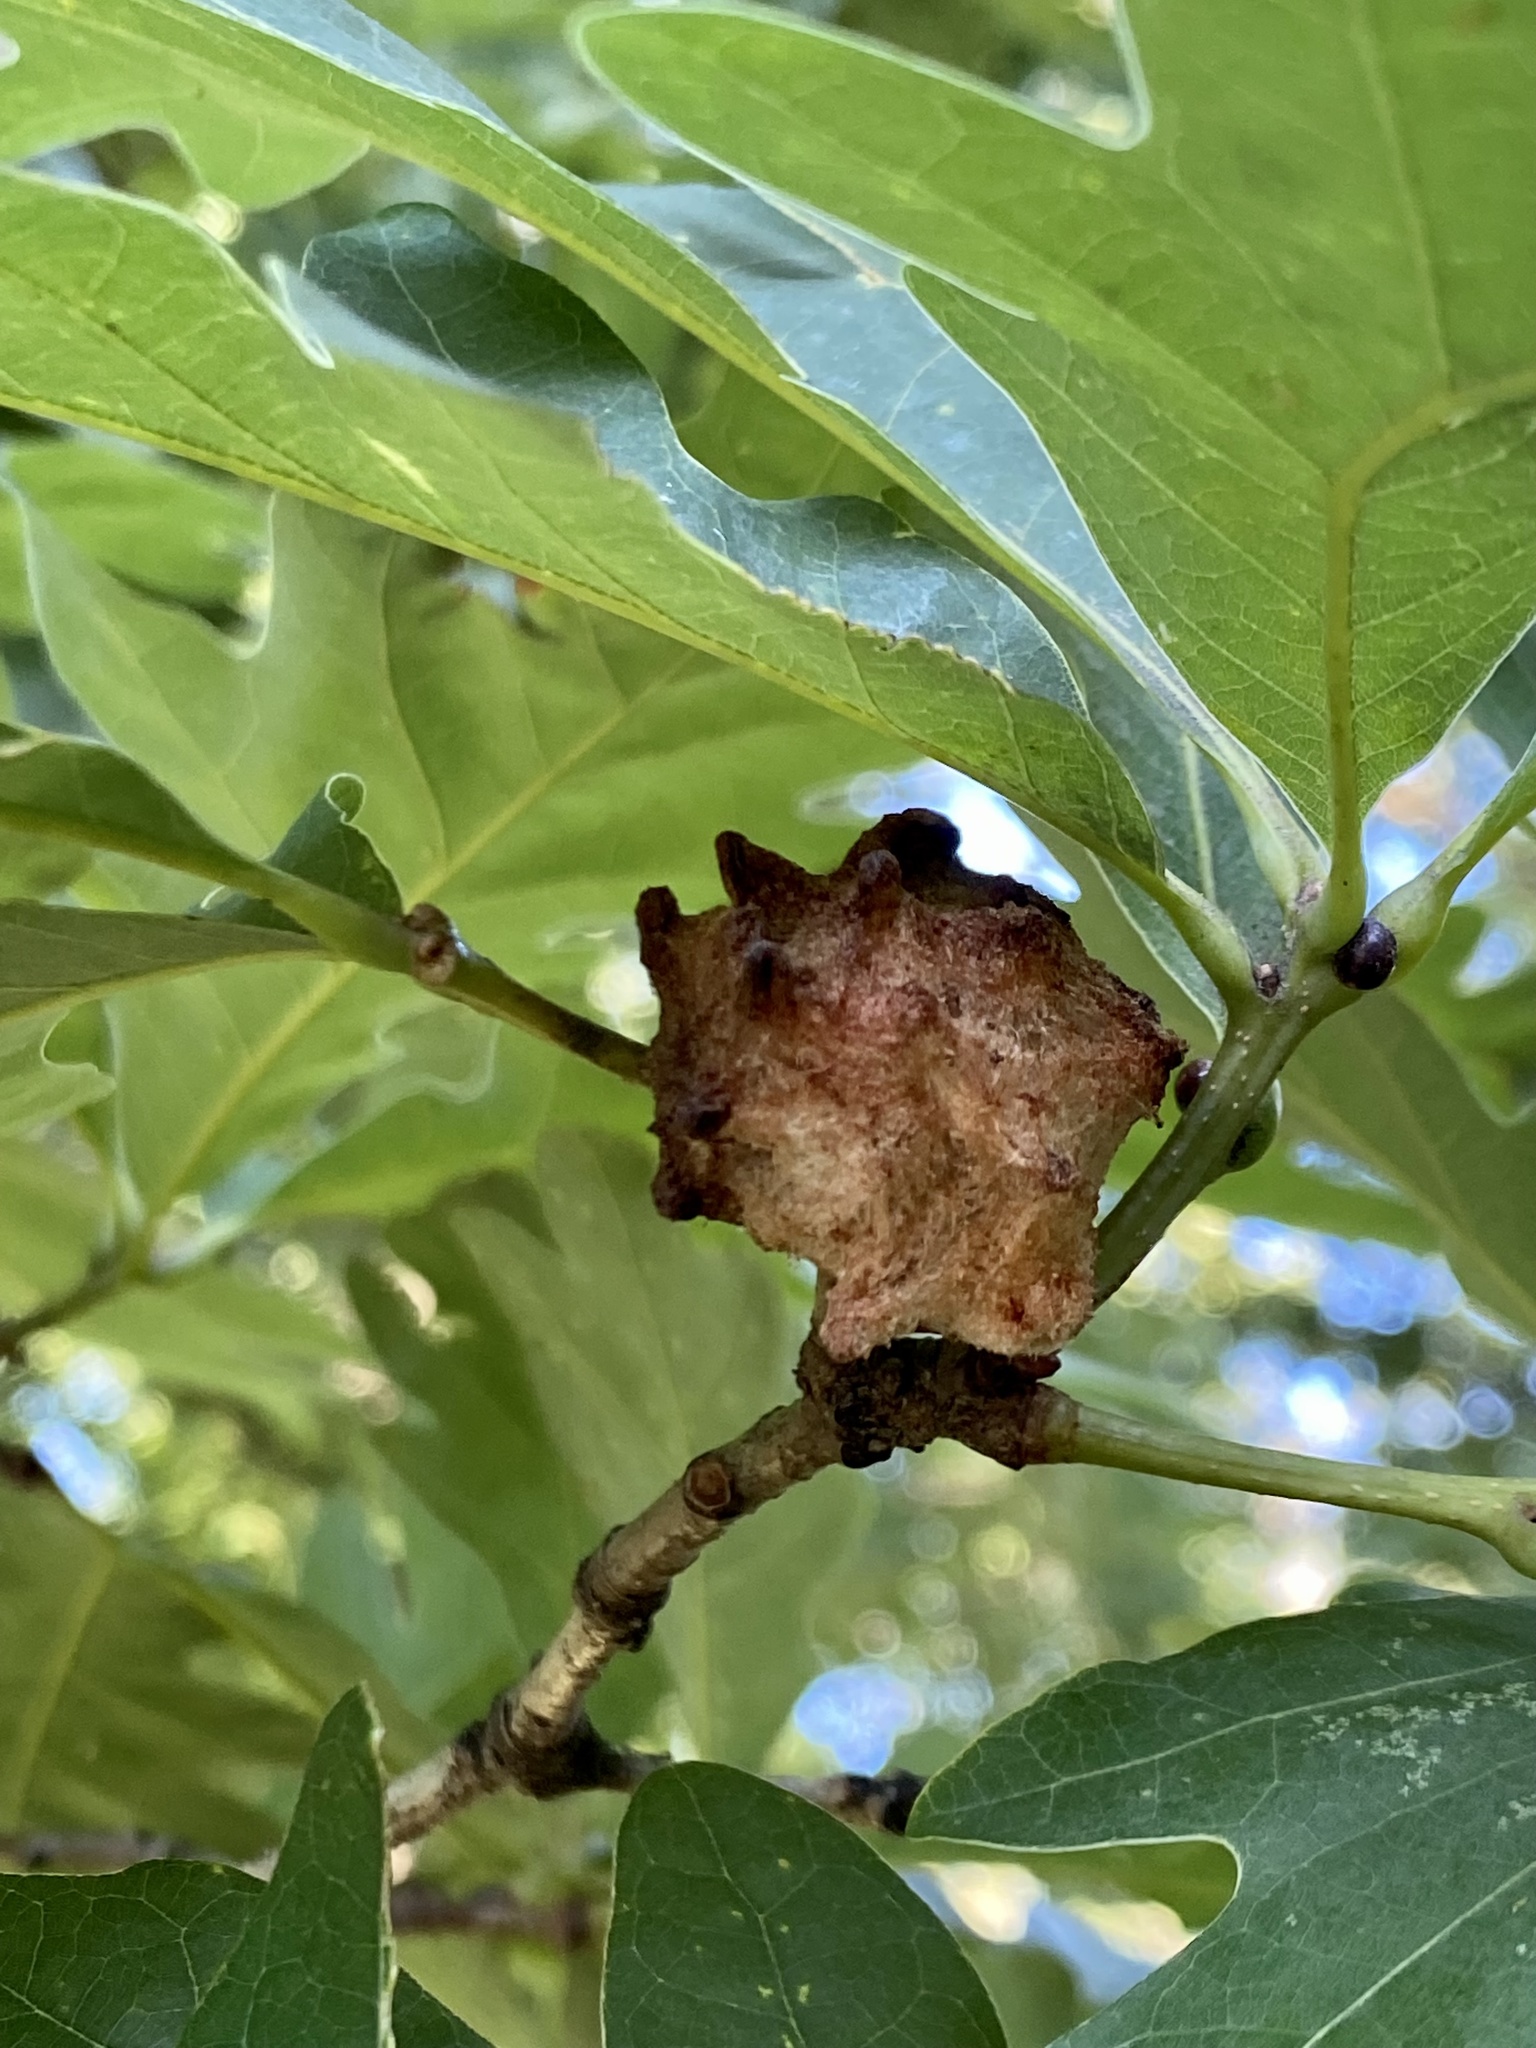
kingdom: Animalia
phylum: Arthropoda
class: Insecta
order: Hymenoptera
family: Cynipidae
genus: Callirhytis
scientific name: Callirhytis
